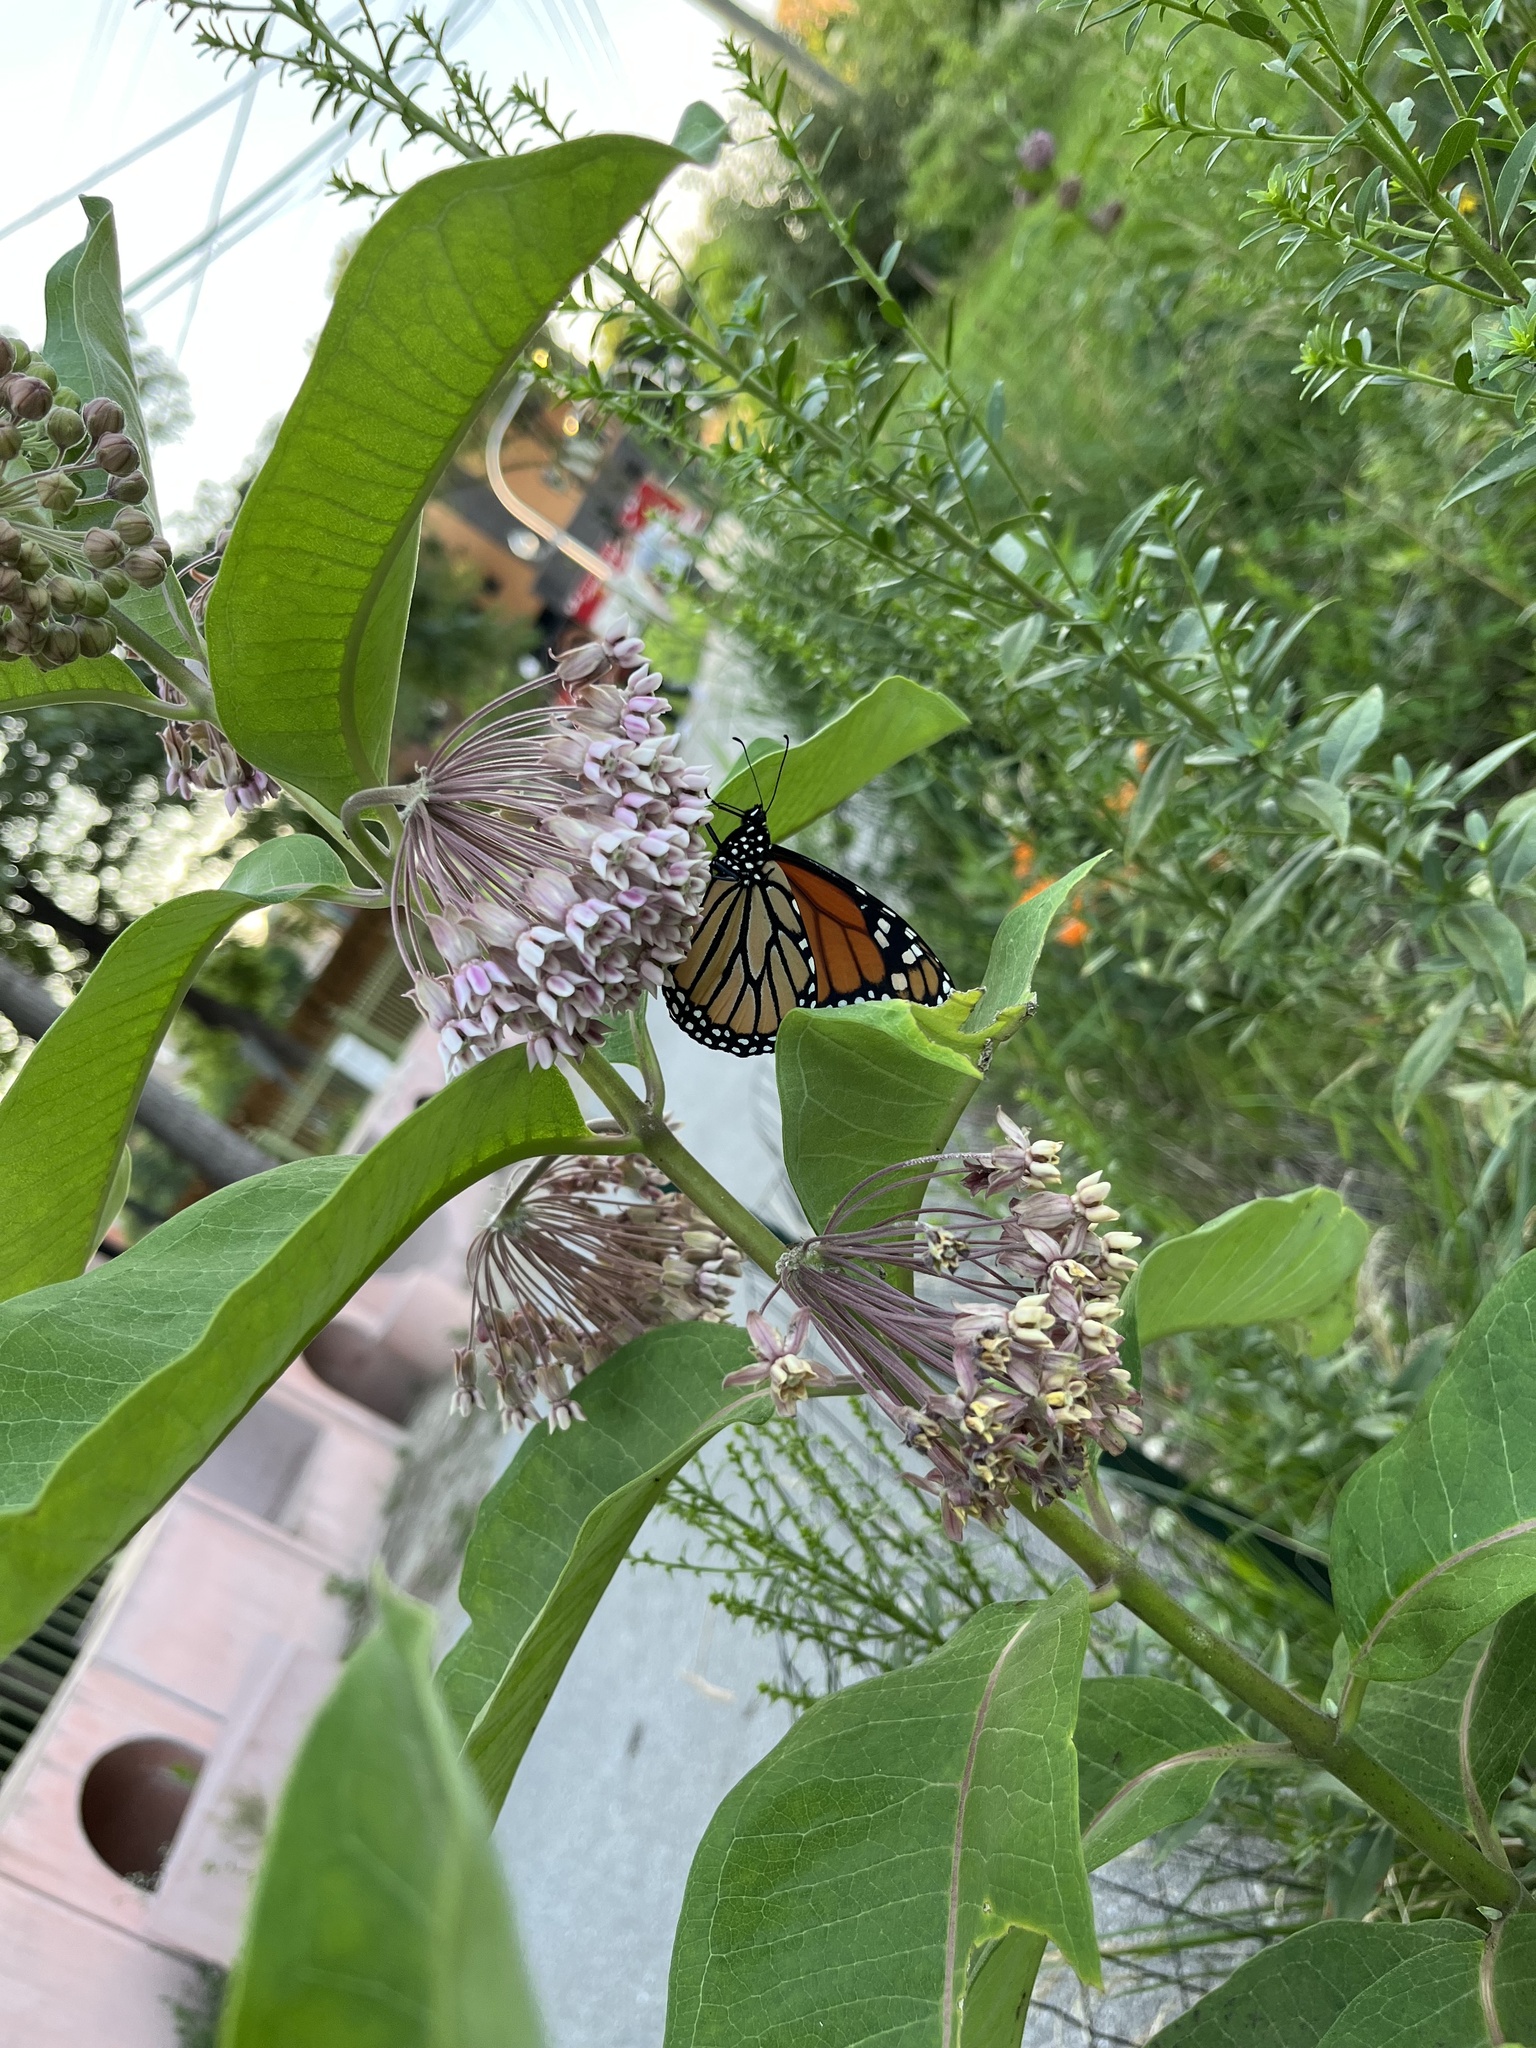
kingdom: Animalia
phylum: Arthropoda
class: Insecta
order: Lepidoptera
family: Nymphalidae
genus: Danaus
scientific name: Danaus plexippus
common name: Monarch
